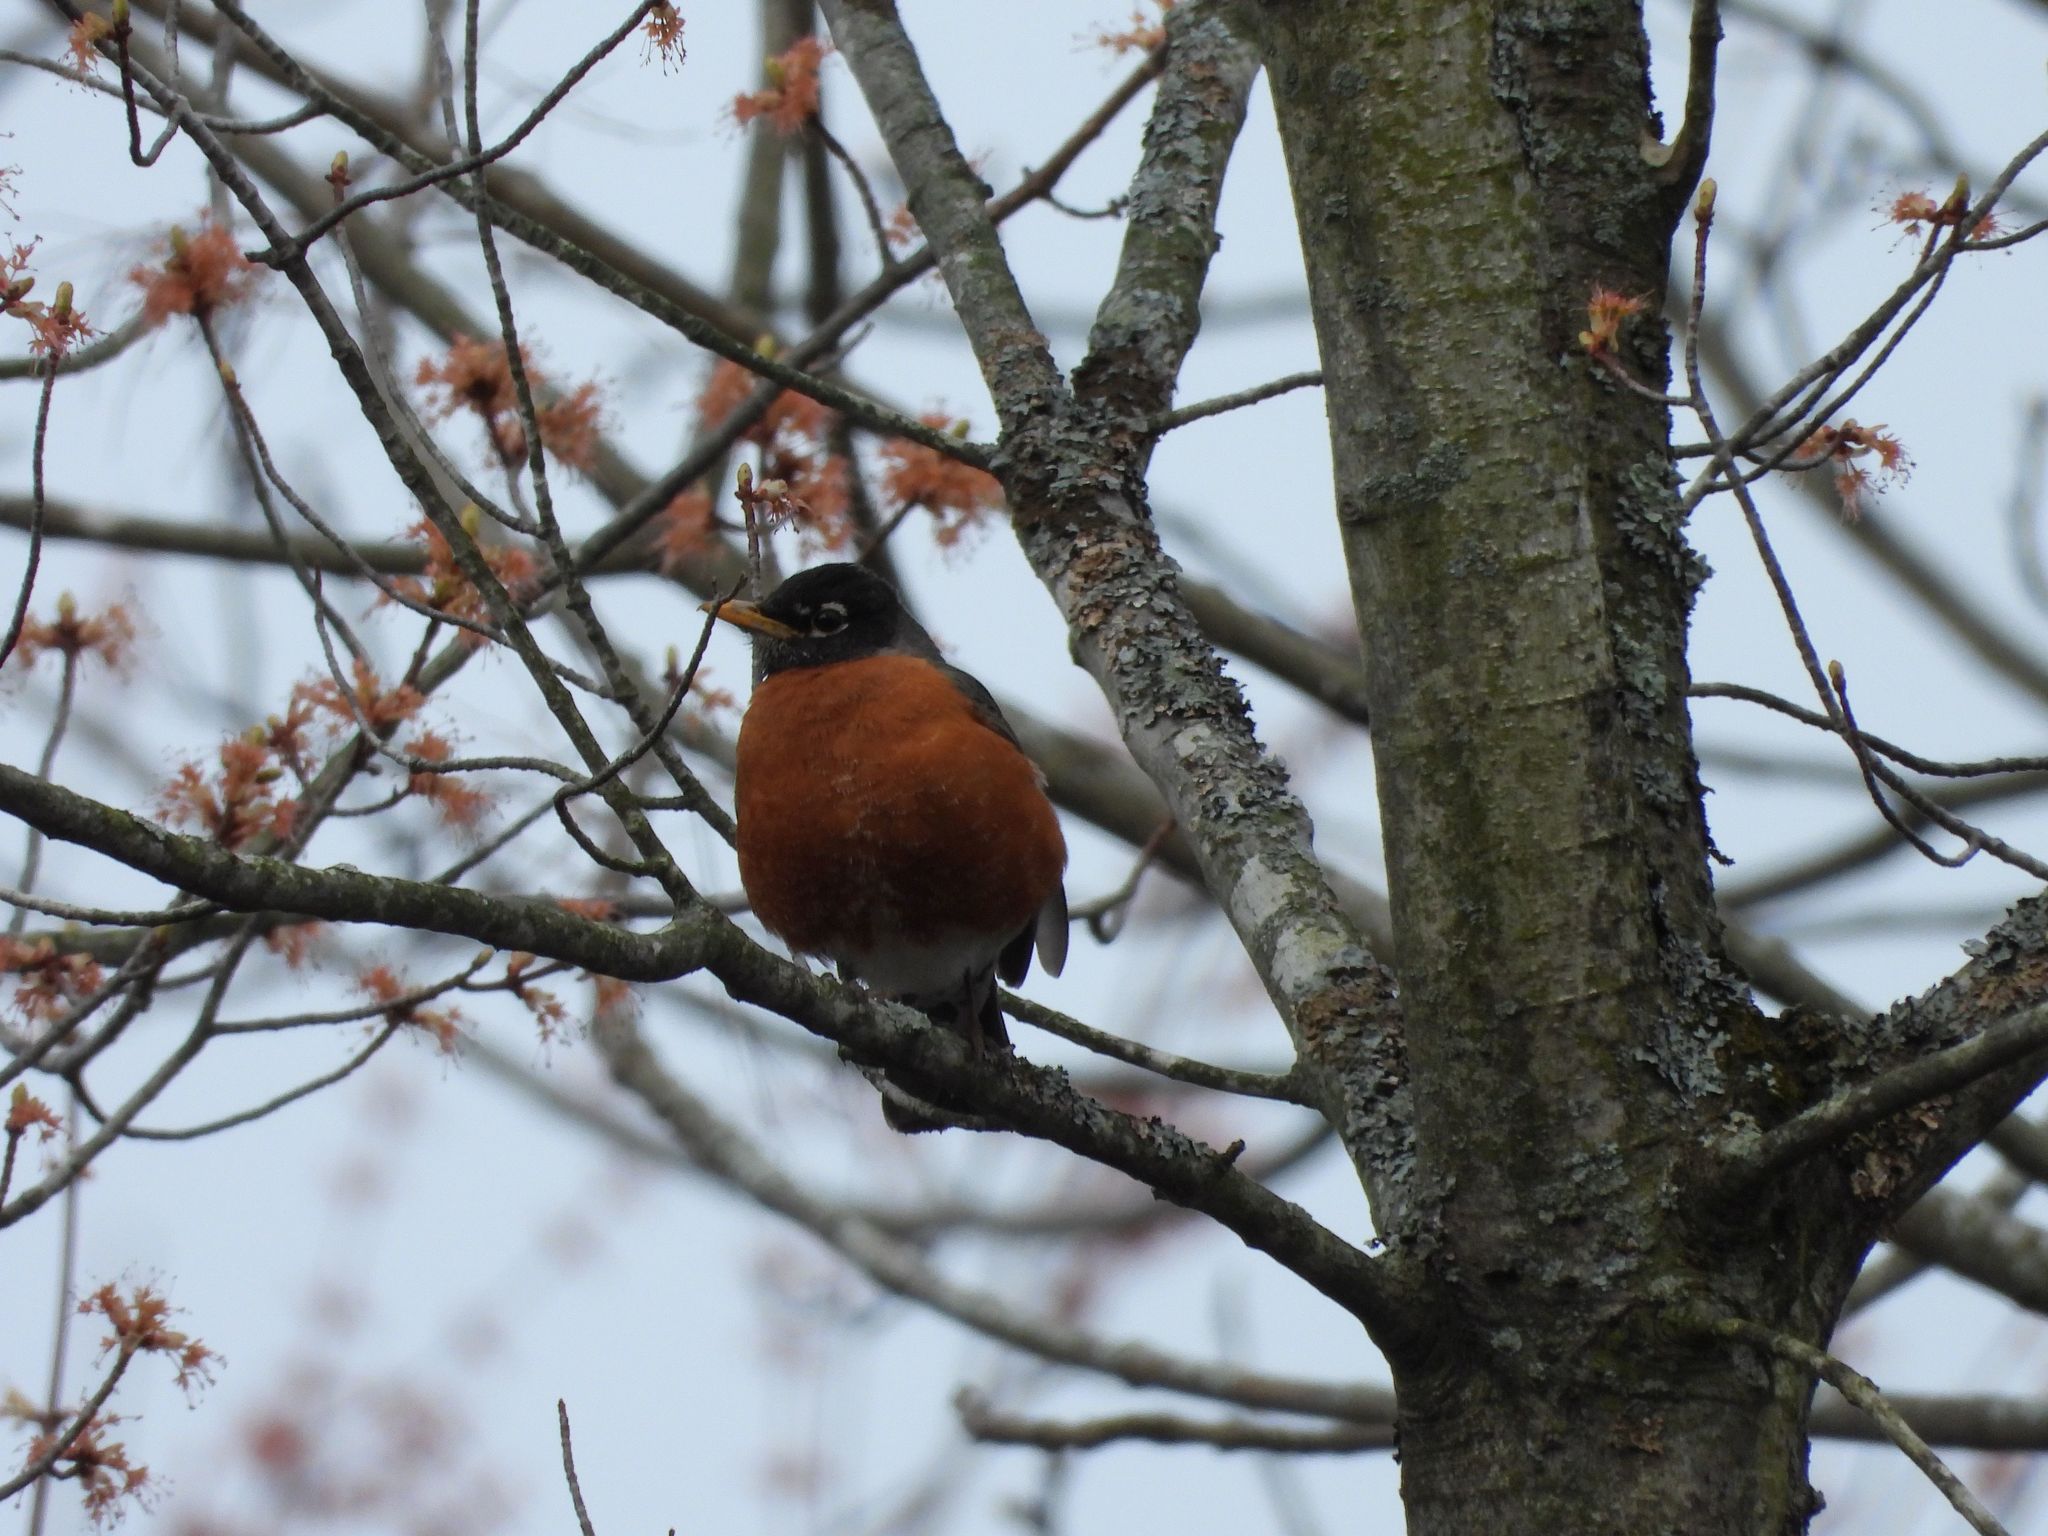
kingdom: Animalia
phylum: Chordata
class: Aves
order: Passeriformes
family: Turdidae
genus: Turdus
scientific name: Turdus migratorius
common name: American robin
